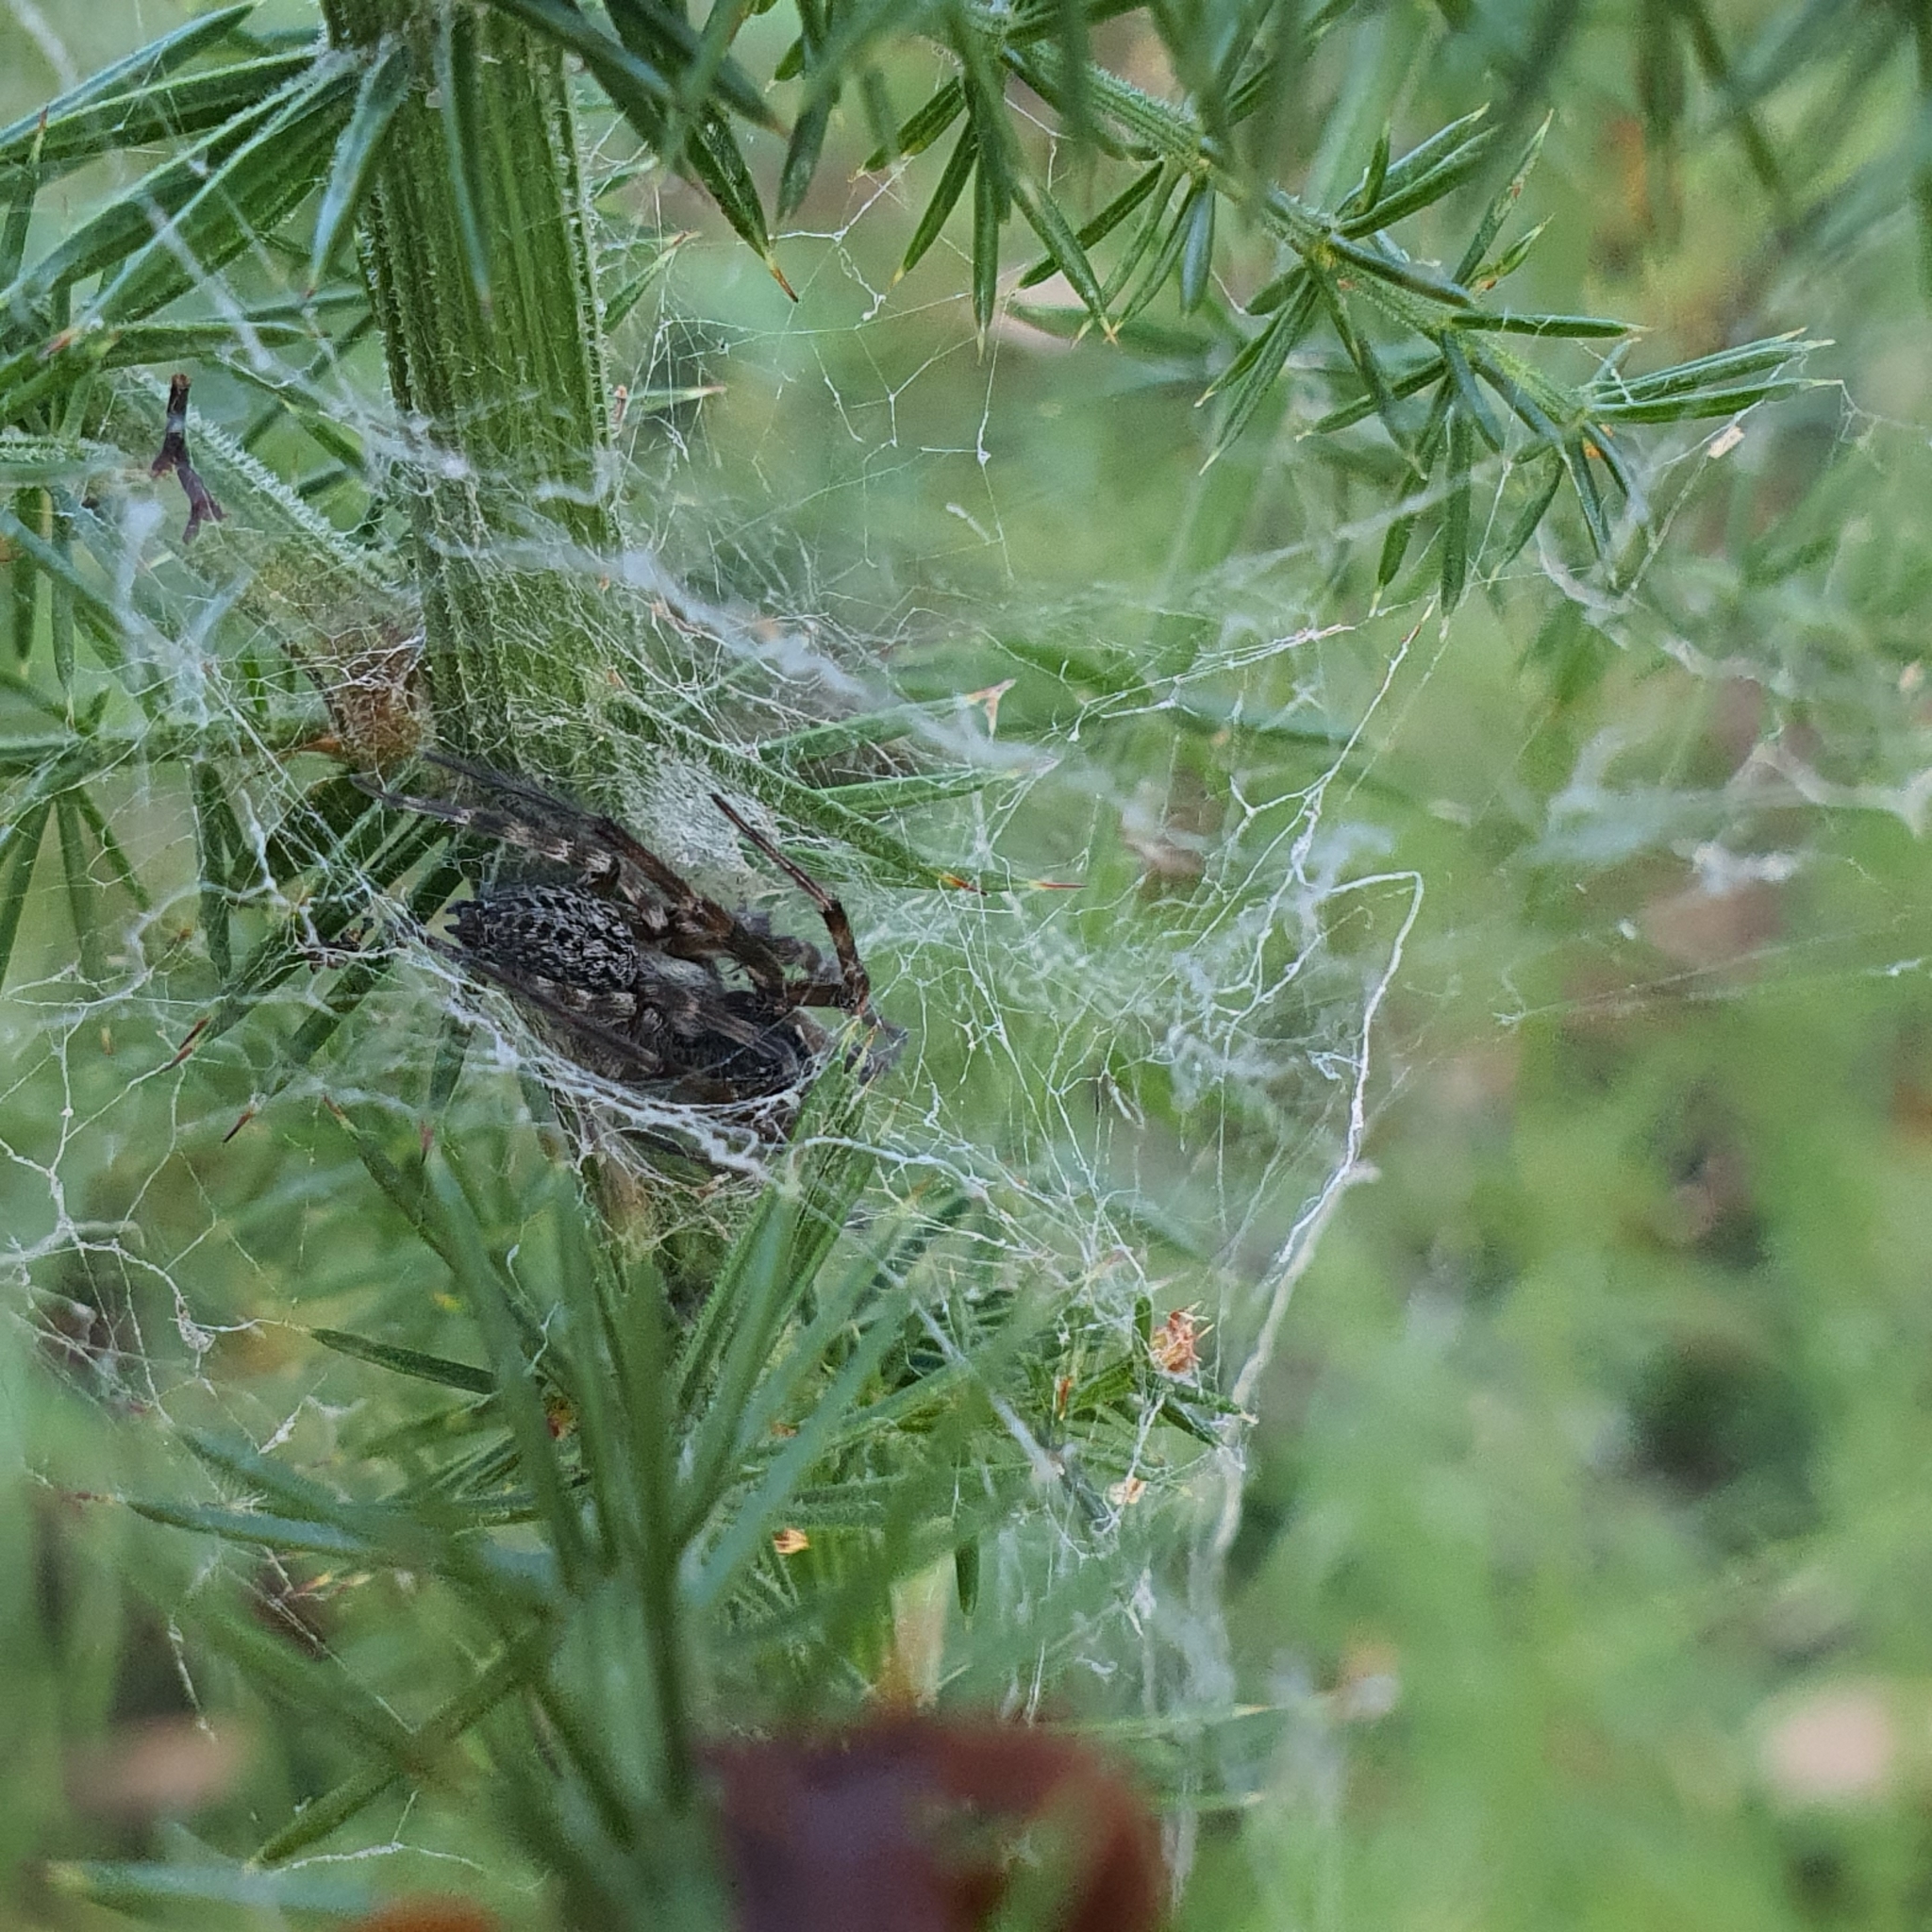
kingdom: Animalia
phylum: Arthropoda
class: Arachnida
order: Araneae
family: Desidae
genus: Badumna
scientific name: Badumna longinqua
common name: Gray house spider
